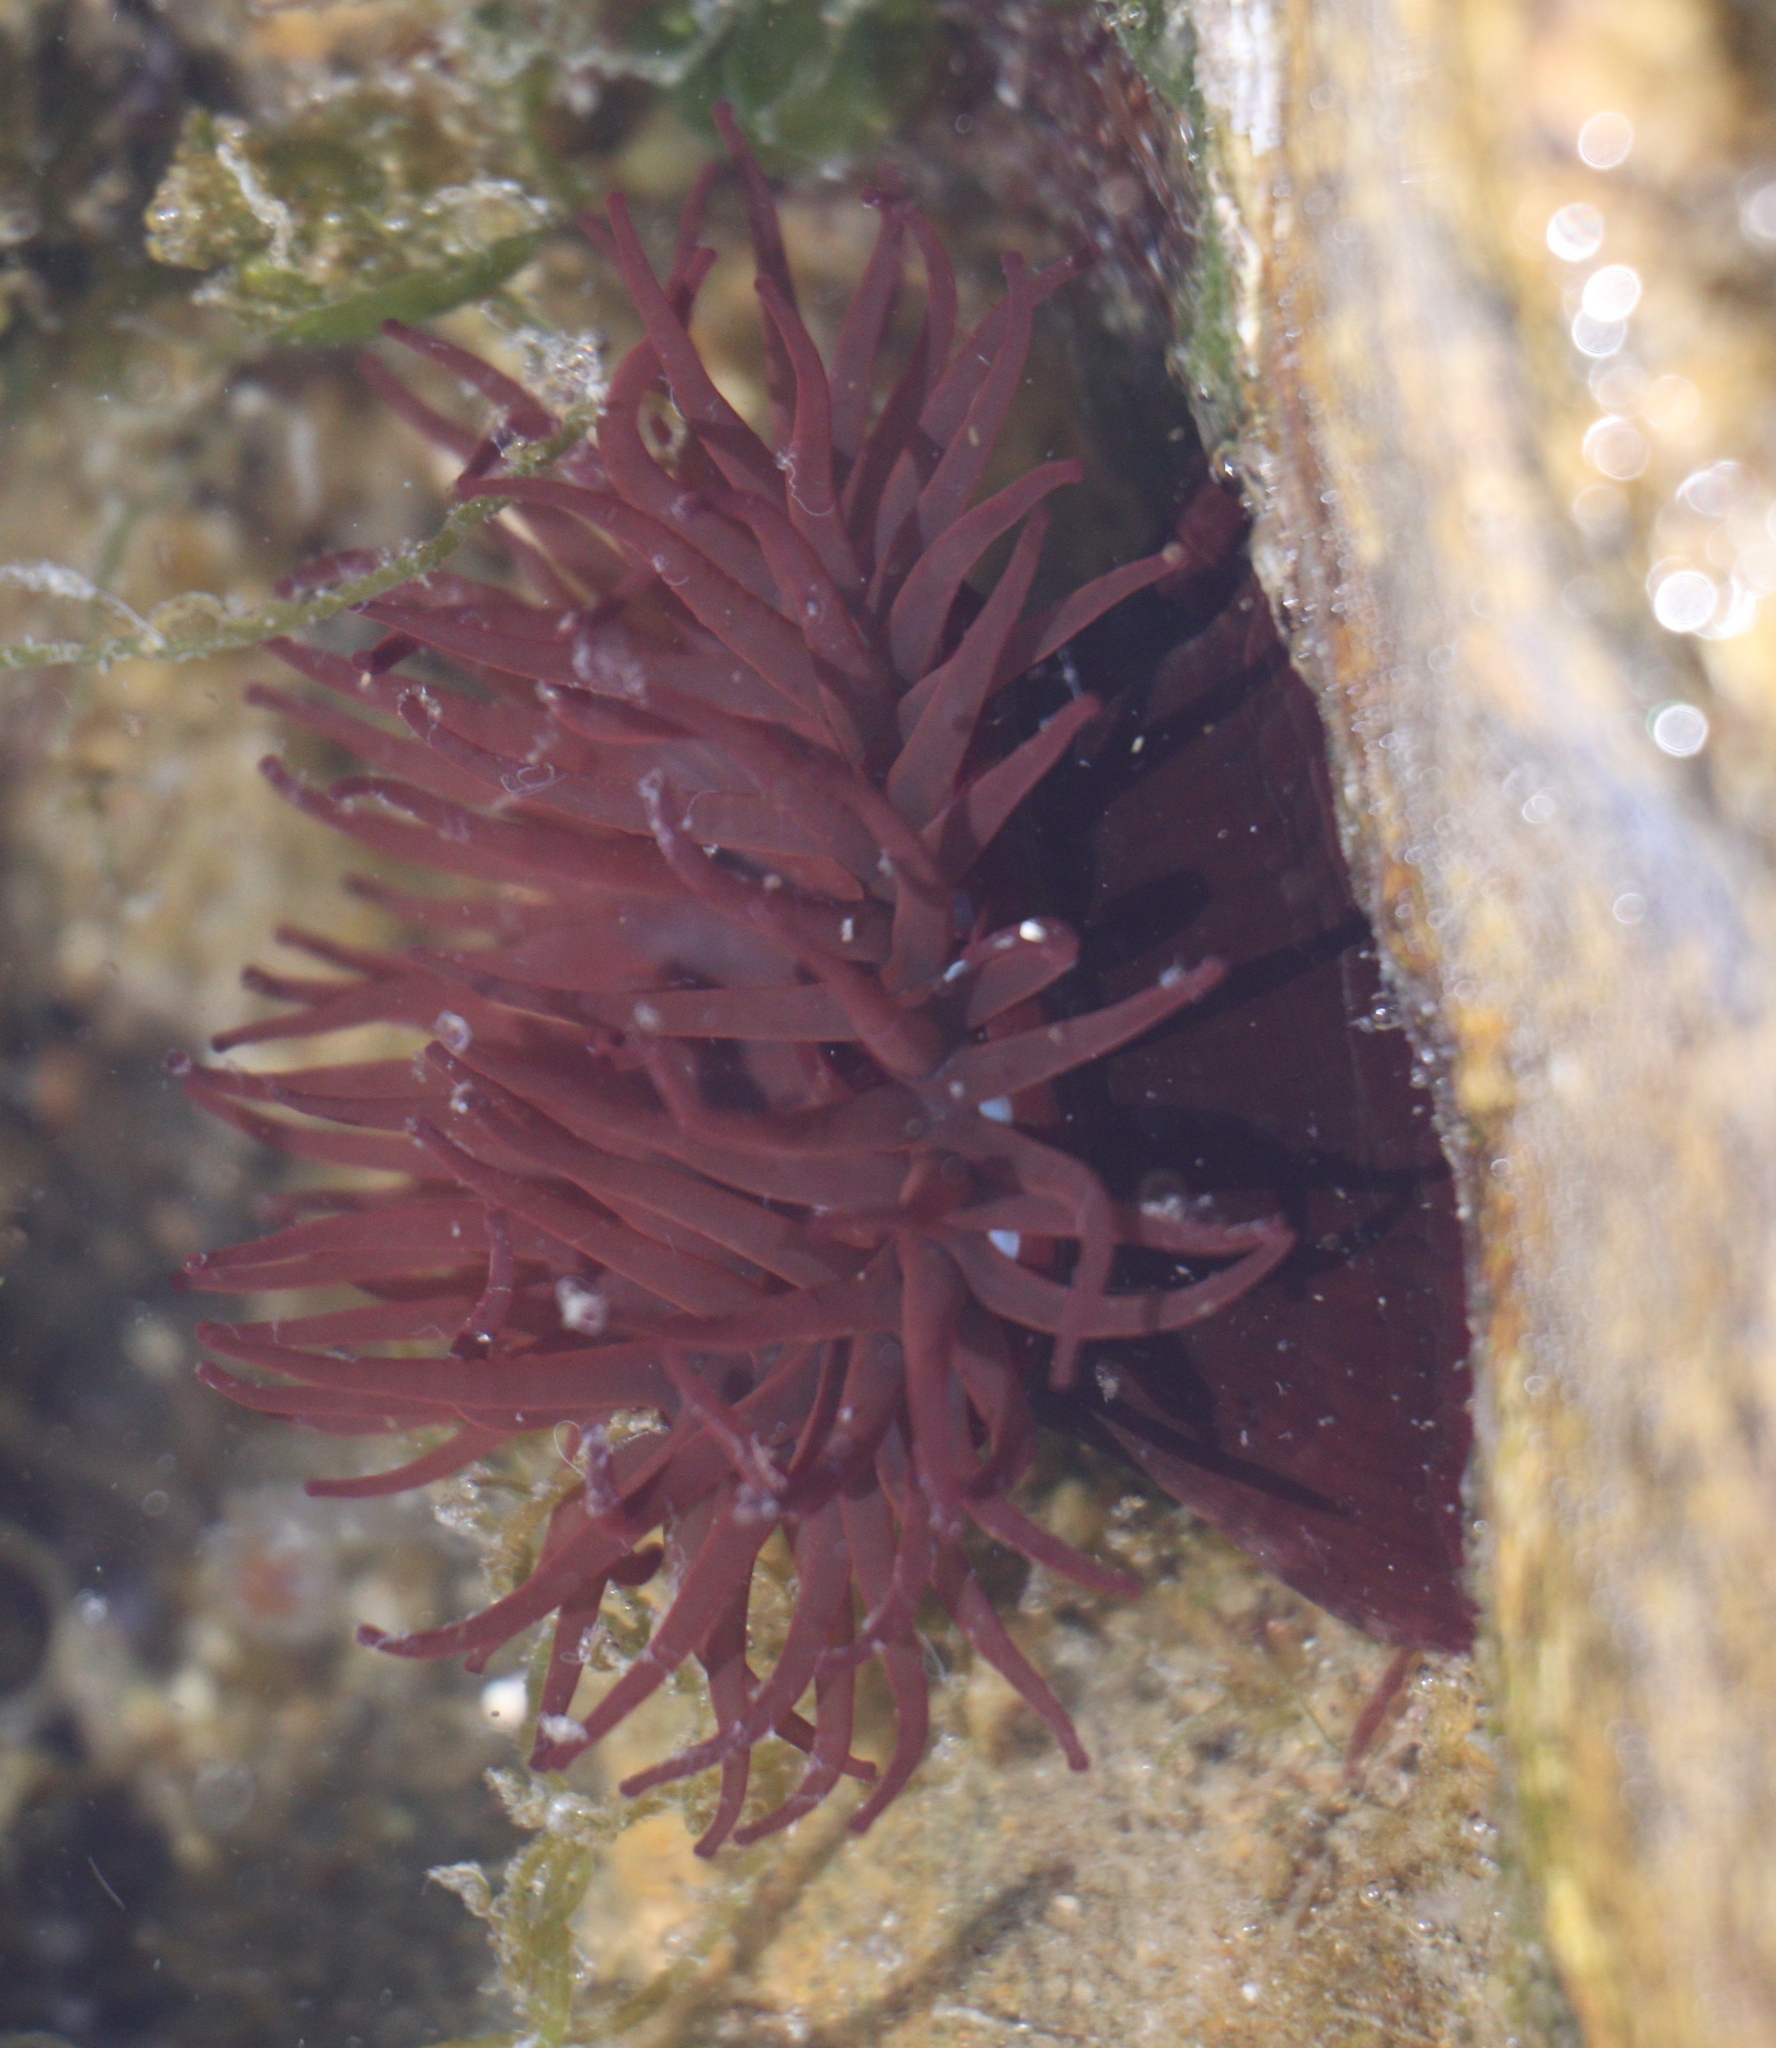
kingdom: Animalia
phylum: Cnidaria
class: Anthozoa
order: Actiniaria
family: Actiniidae
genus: Actinia
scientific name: Actinia equina
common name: Beadlet anemone
